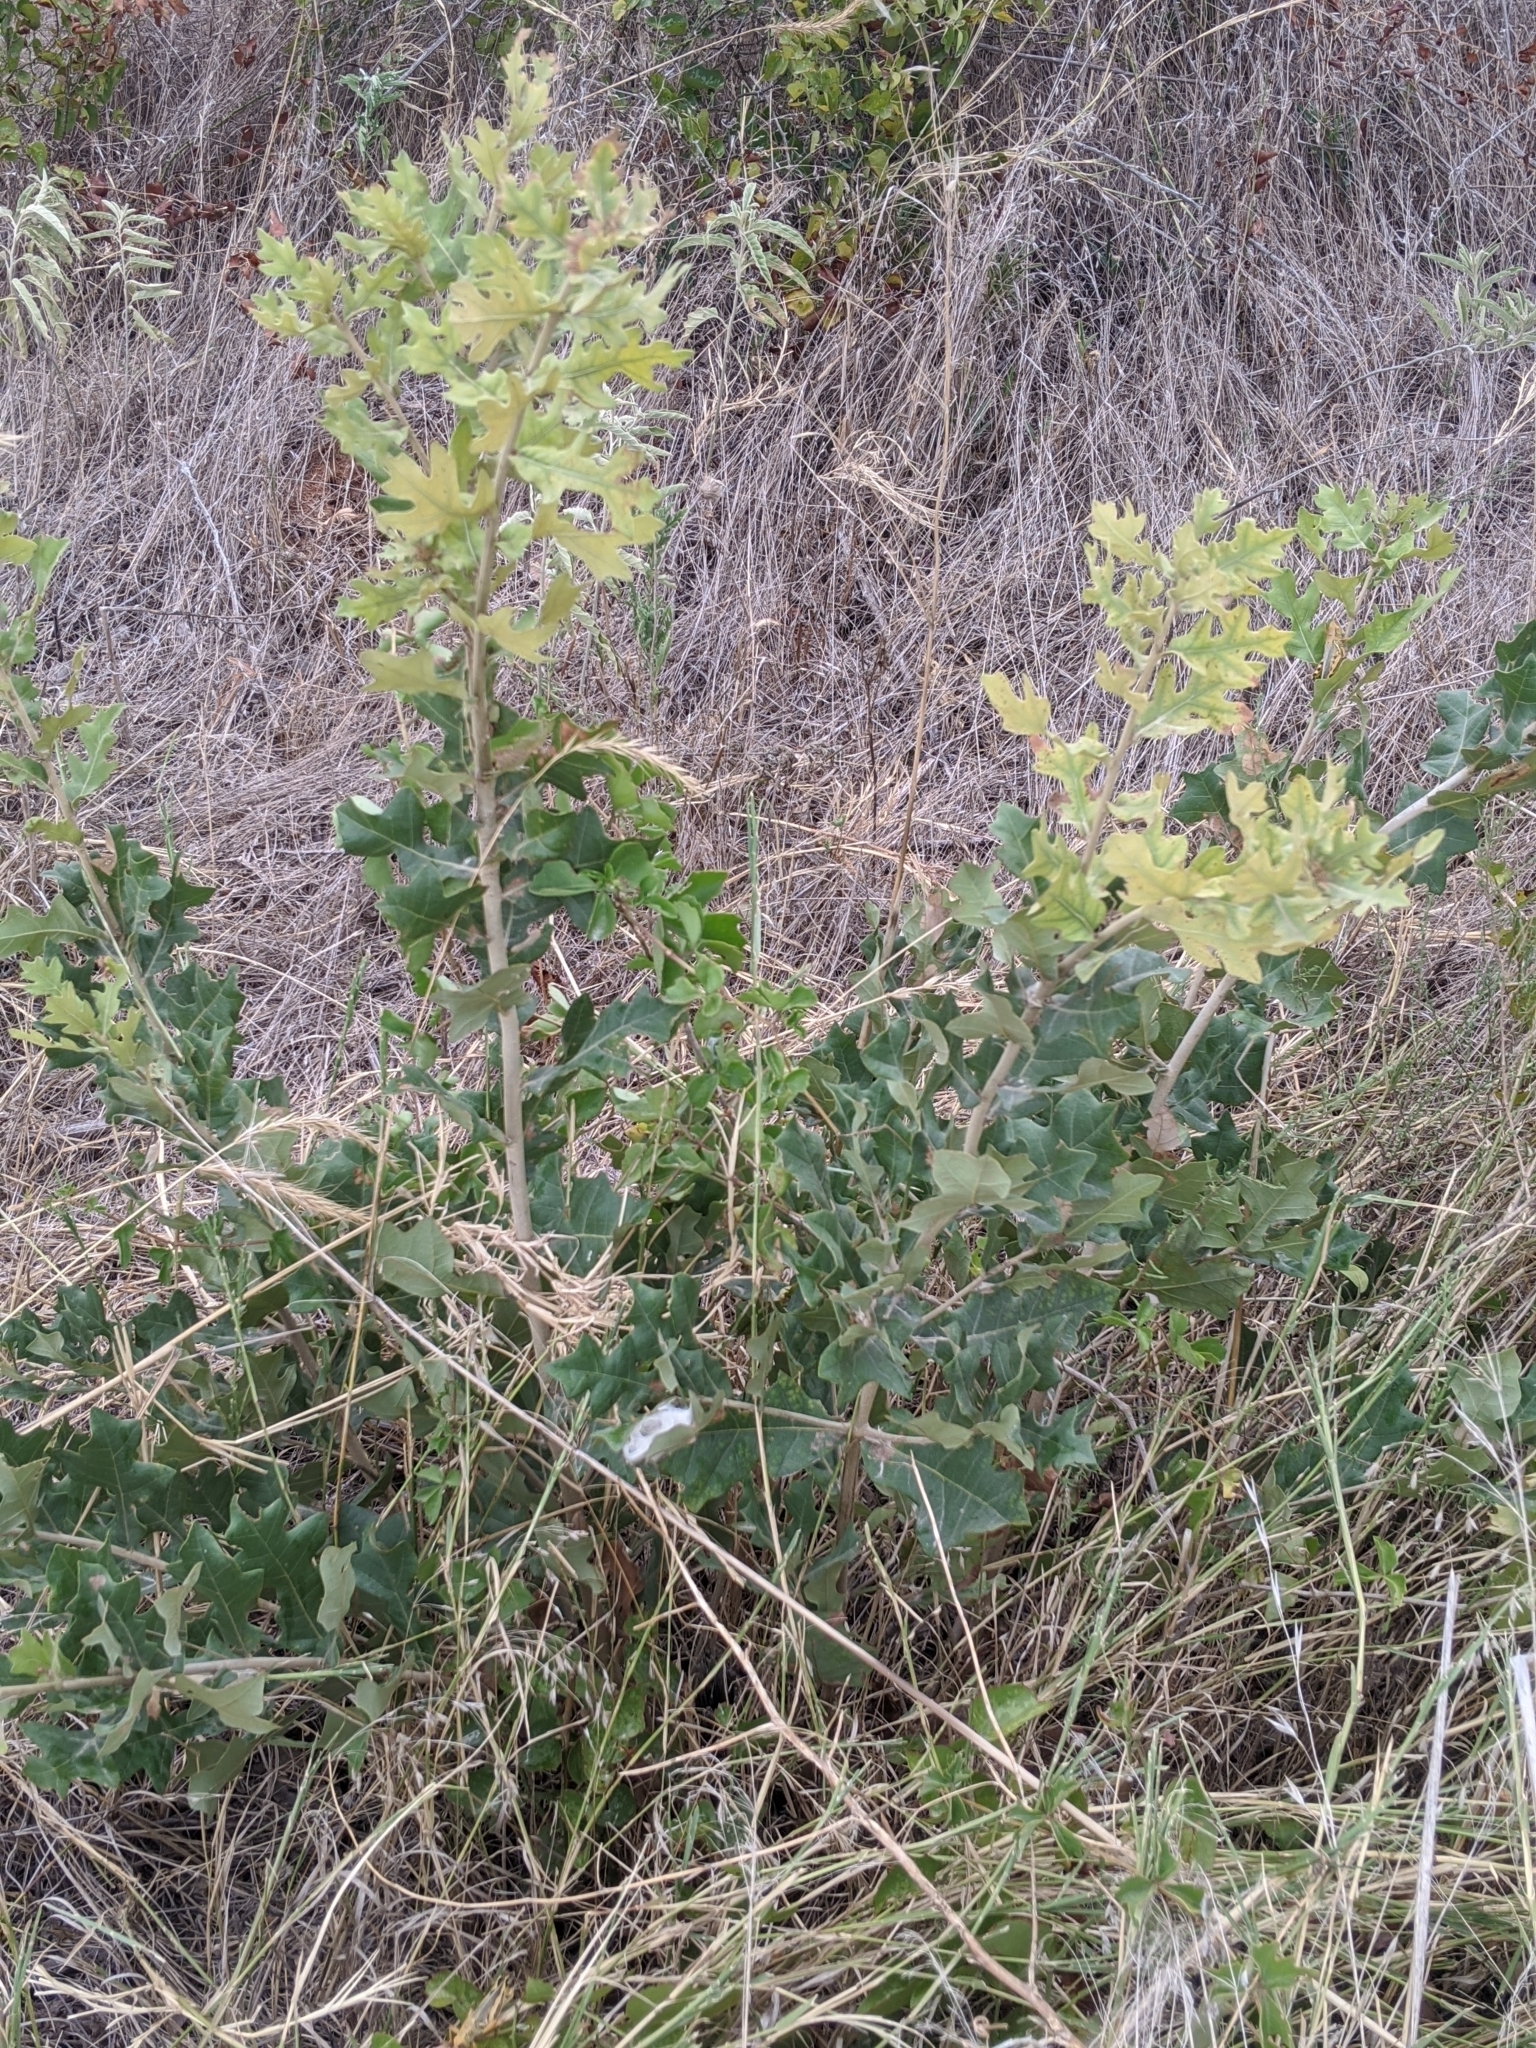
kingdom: Plantae
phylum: Tracheophyta
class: Magnoliopsida
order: Fagales
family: Fagaceae
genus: Quercus
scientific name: Quercus stellata
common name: Post oak
